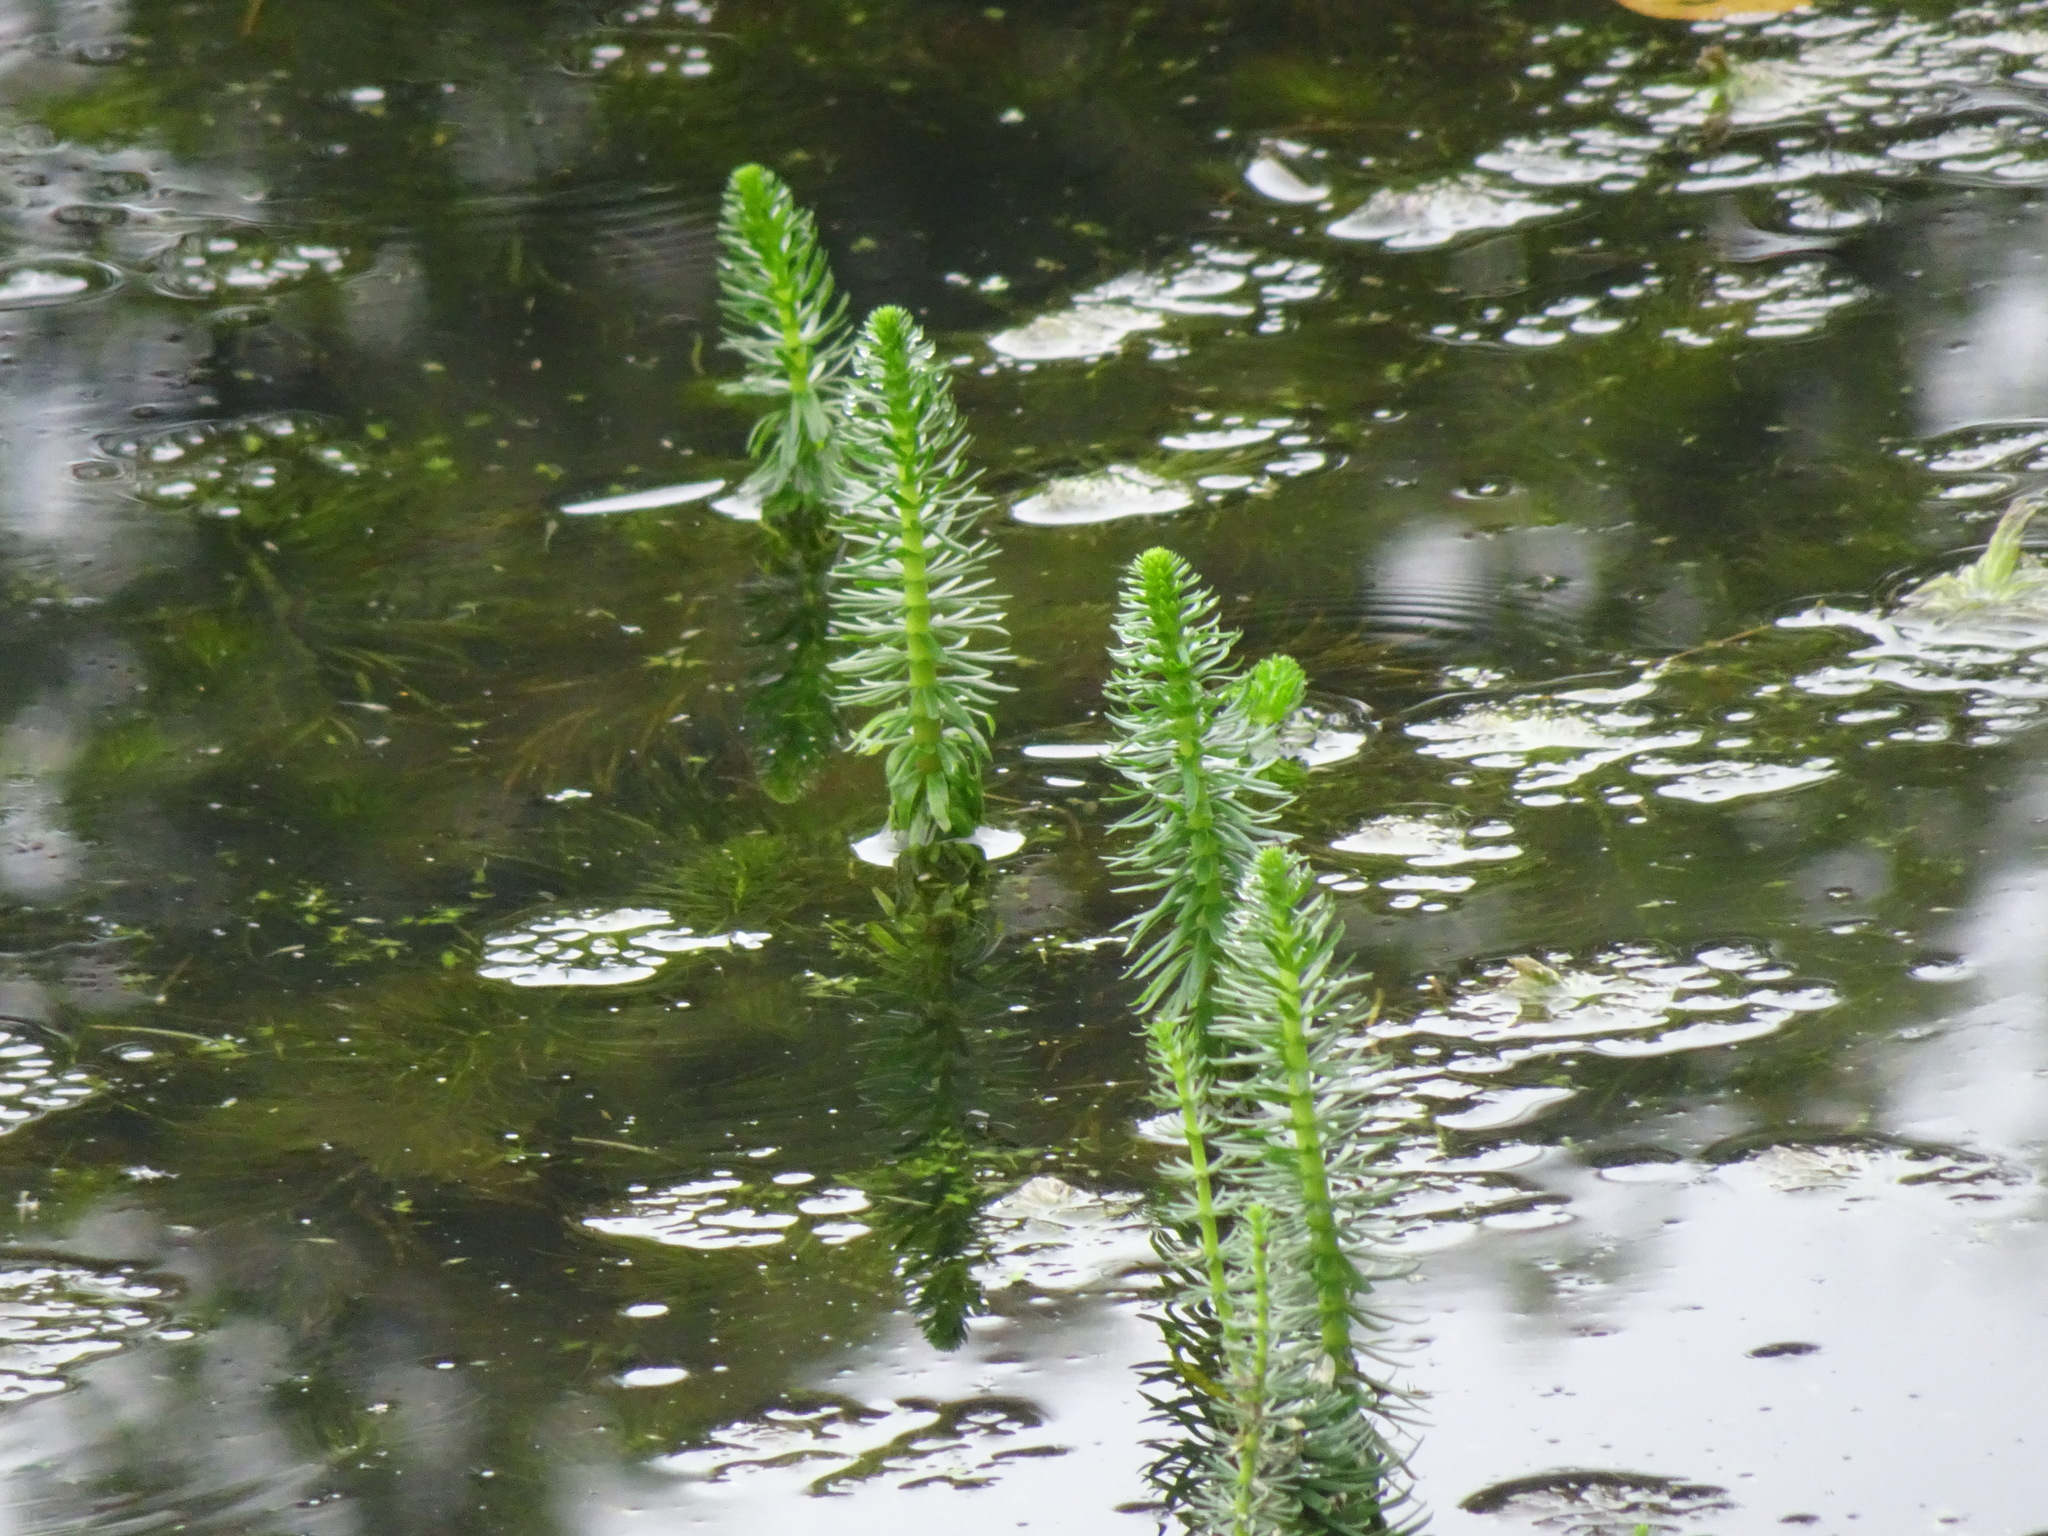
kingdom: Plantae
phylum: Tracheophyta
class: Magnoliopsida
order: Lamiales
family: Plantaginaceae
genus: Hippuris
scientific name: Hippuris vulgaris
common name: Mare's-tail
